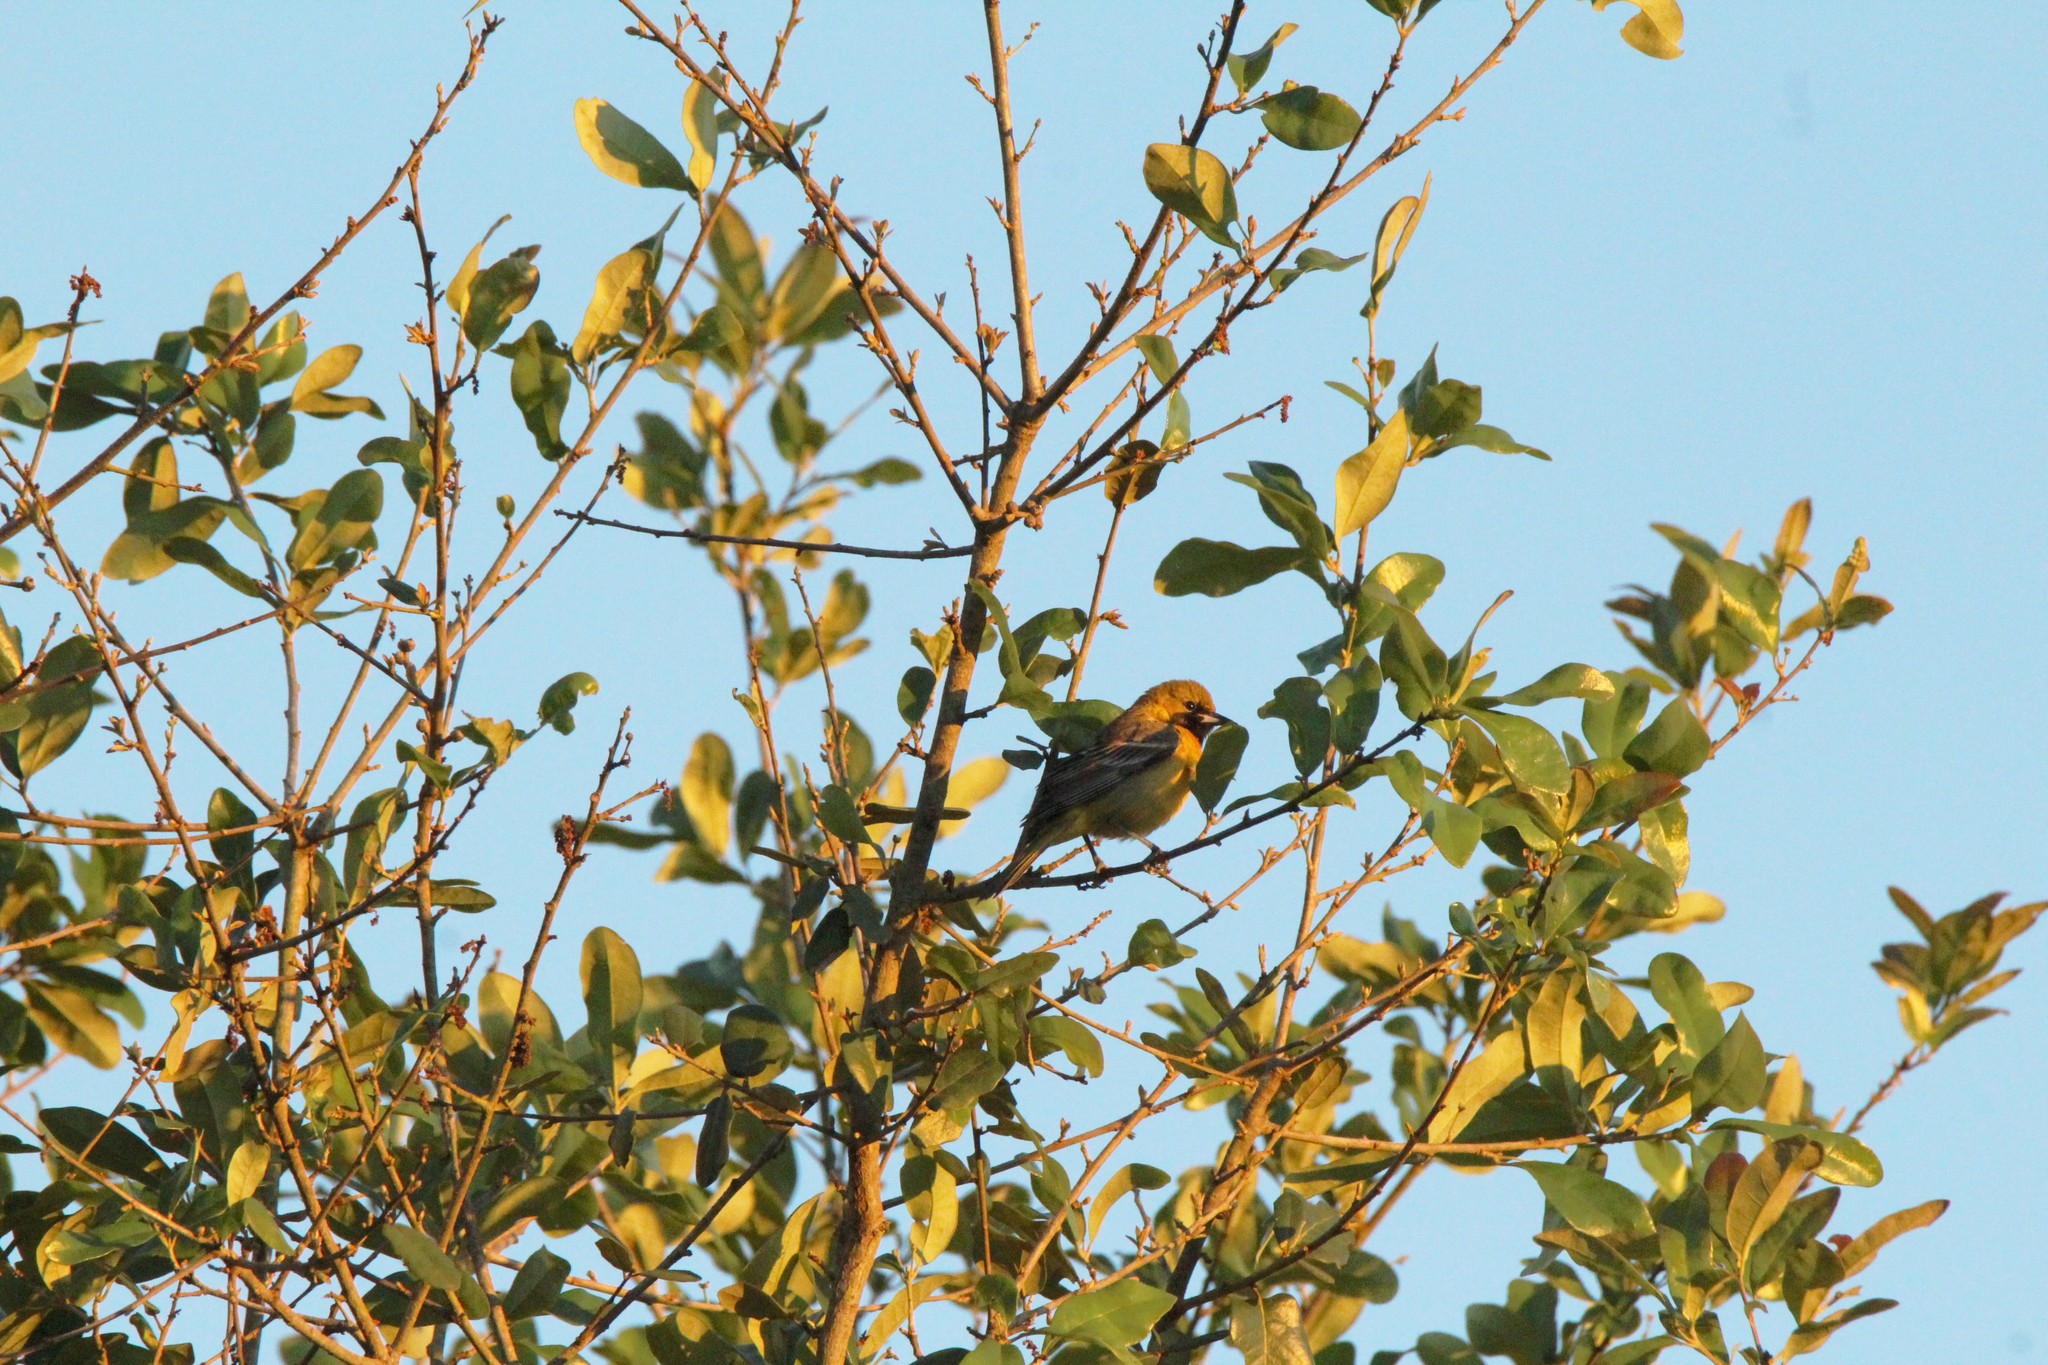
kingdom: Animalia
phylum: Chordata
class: Aves
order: Passeriformes
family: Icteridae
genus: Icterus
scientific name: Icterus spurius
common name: Orchard oriole
